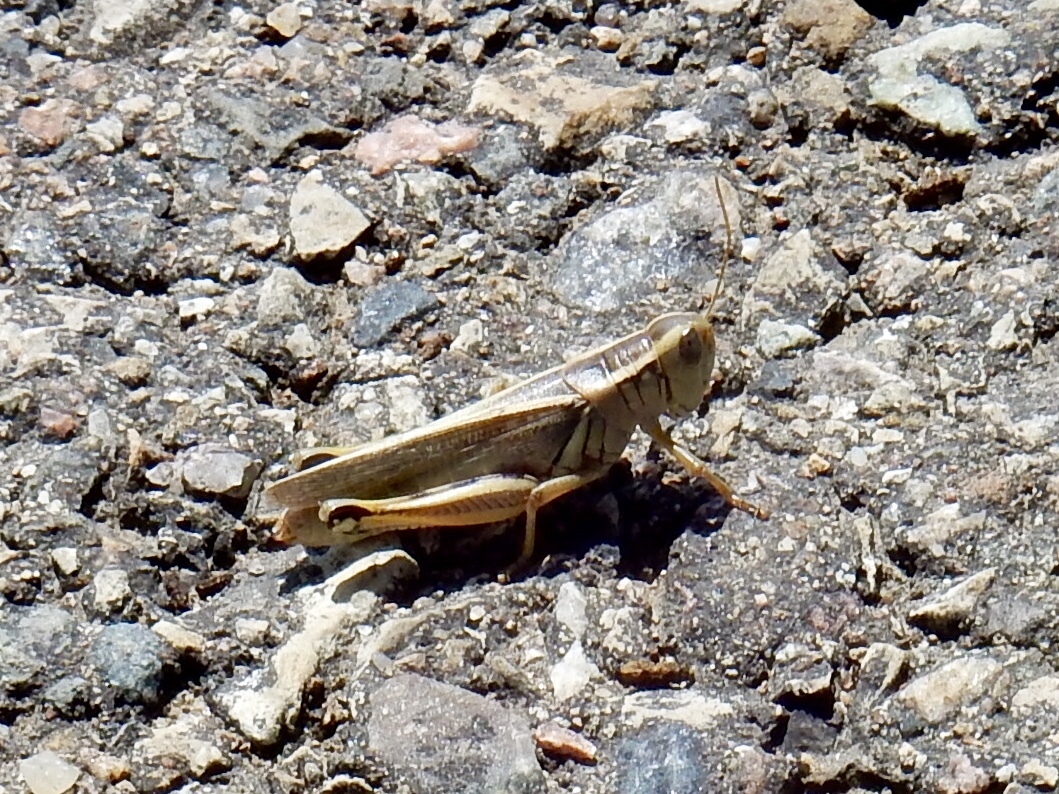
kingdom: Animalia
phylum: Arthropoda
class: Insecta
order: Orthoptera
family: Acrididae
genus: Melanoplus
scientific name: Melanoplus bivittatus
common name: Two-striped grasshopper
